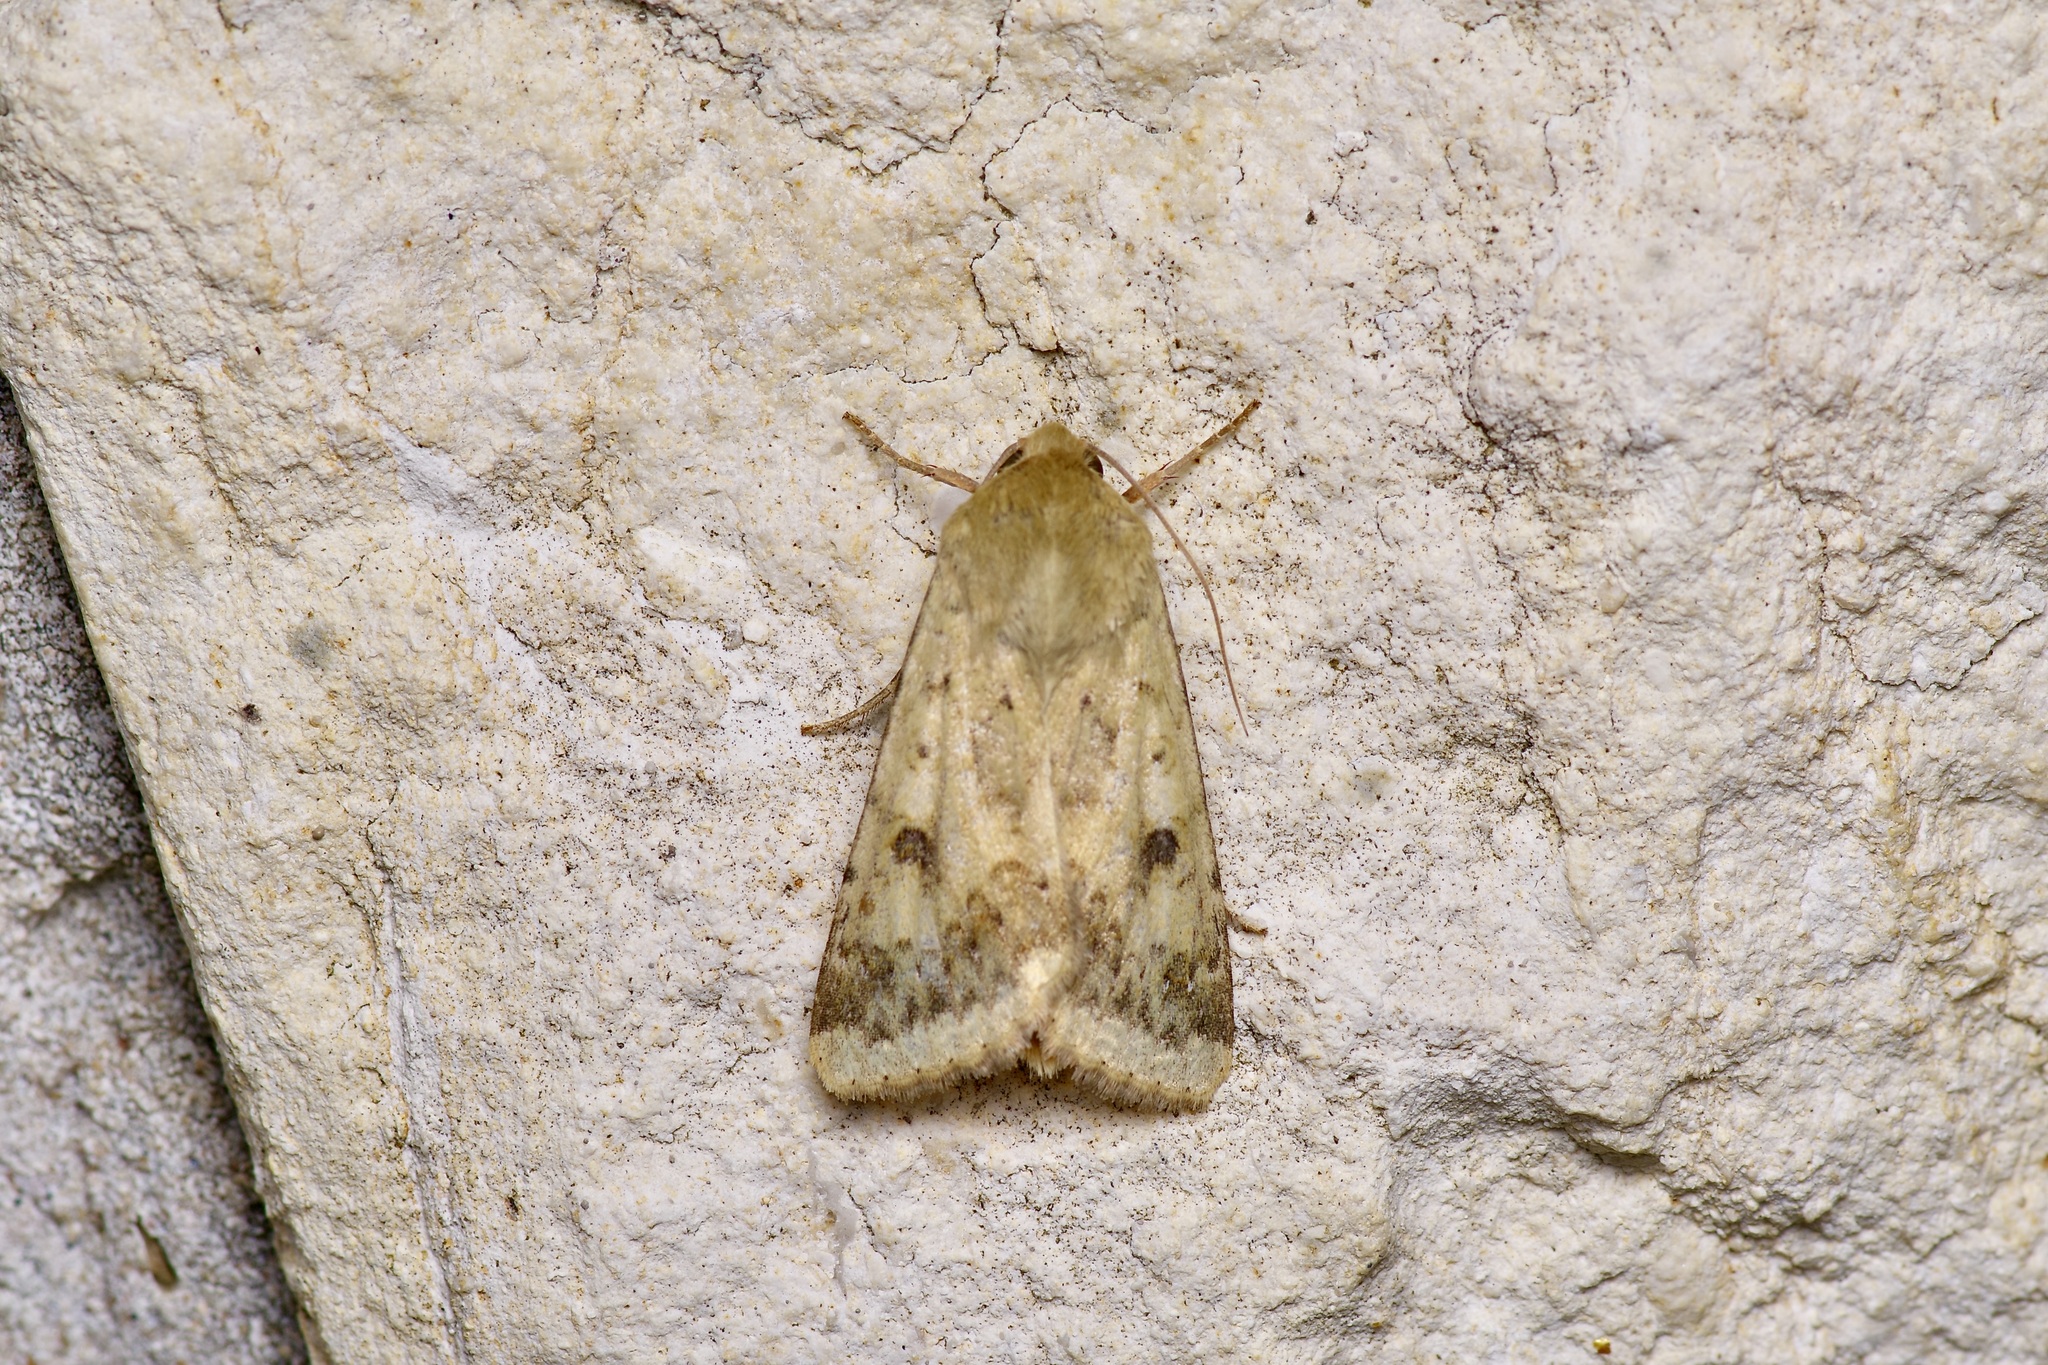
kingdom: Animalia
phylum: Arthropoda
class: Insecta
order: Lepidoptera
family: Noctuidae
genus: Helicoverpa
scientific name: Helicoverpa zea
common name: Bollworm
